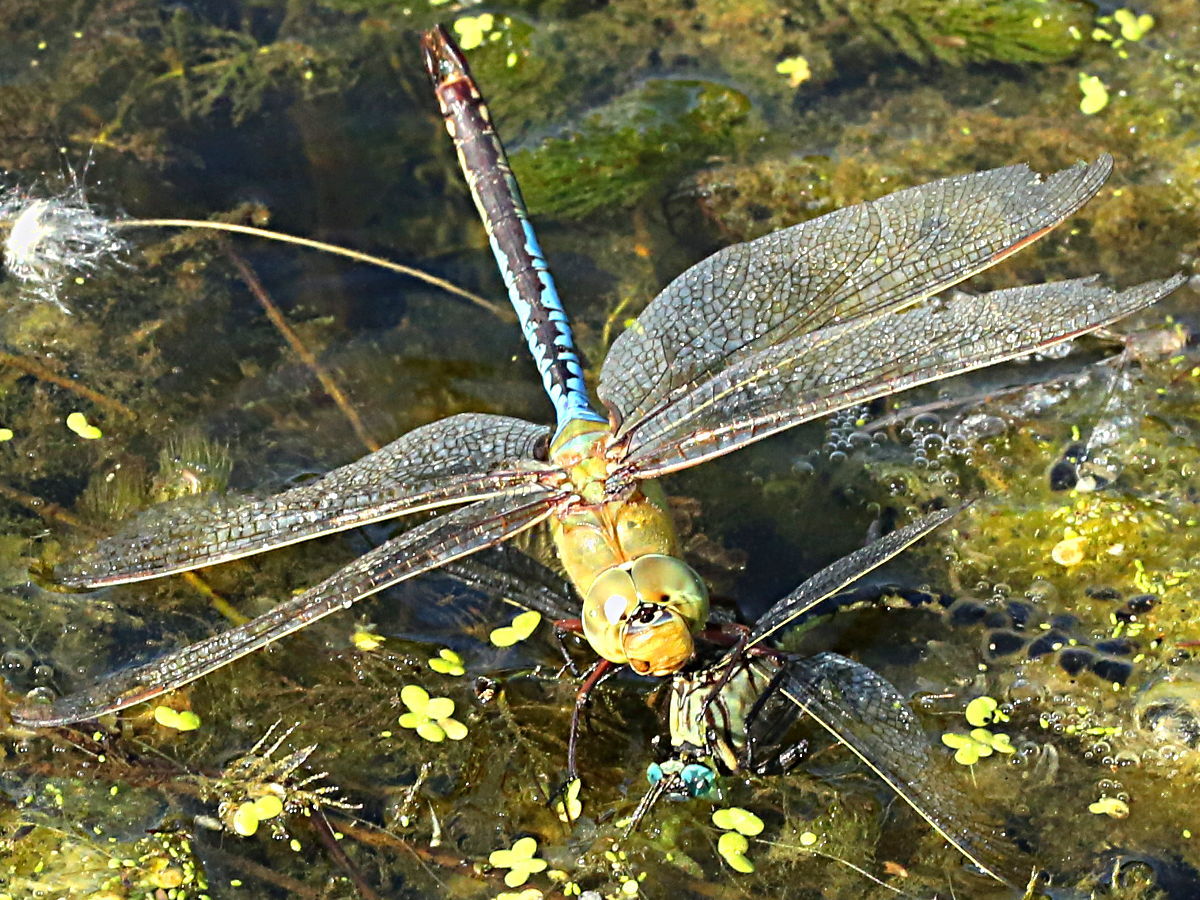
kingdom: Animalia
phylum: Arthropoda
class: Insecta
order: Odonata
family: Aeshnidae
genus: Anax
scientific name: Anax junius
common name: Common green darner
